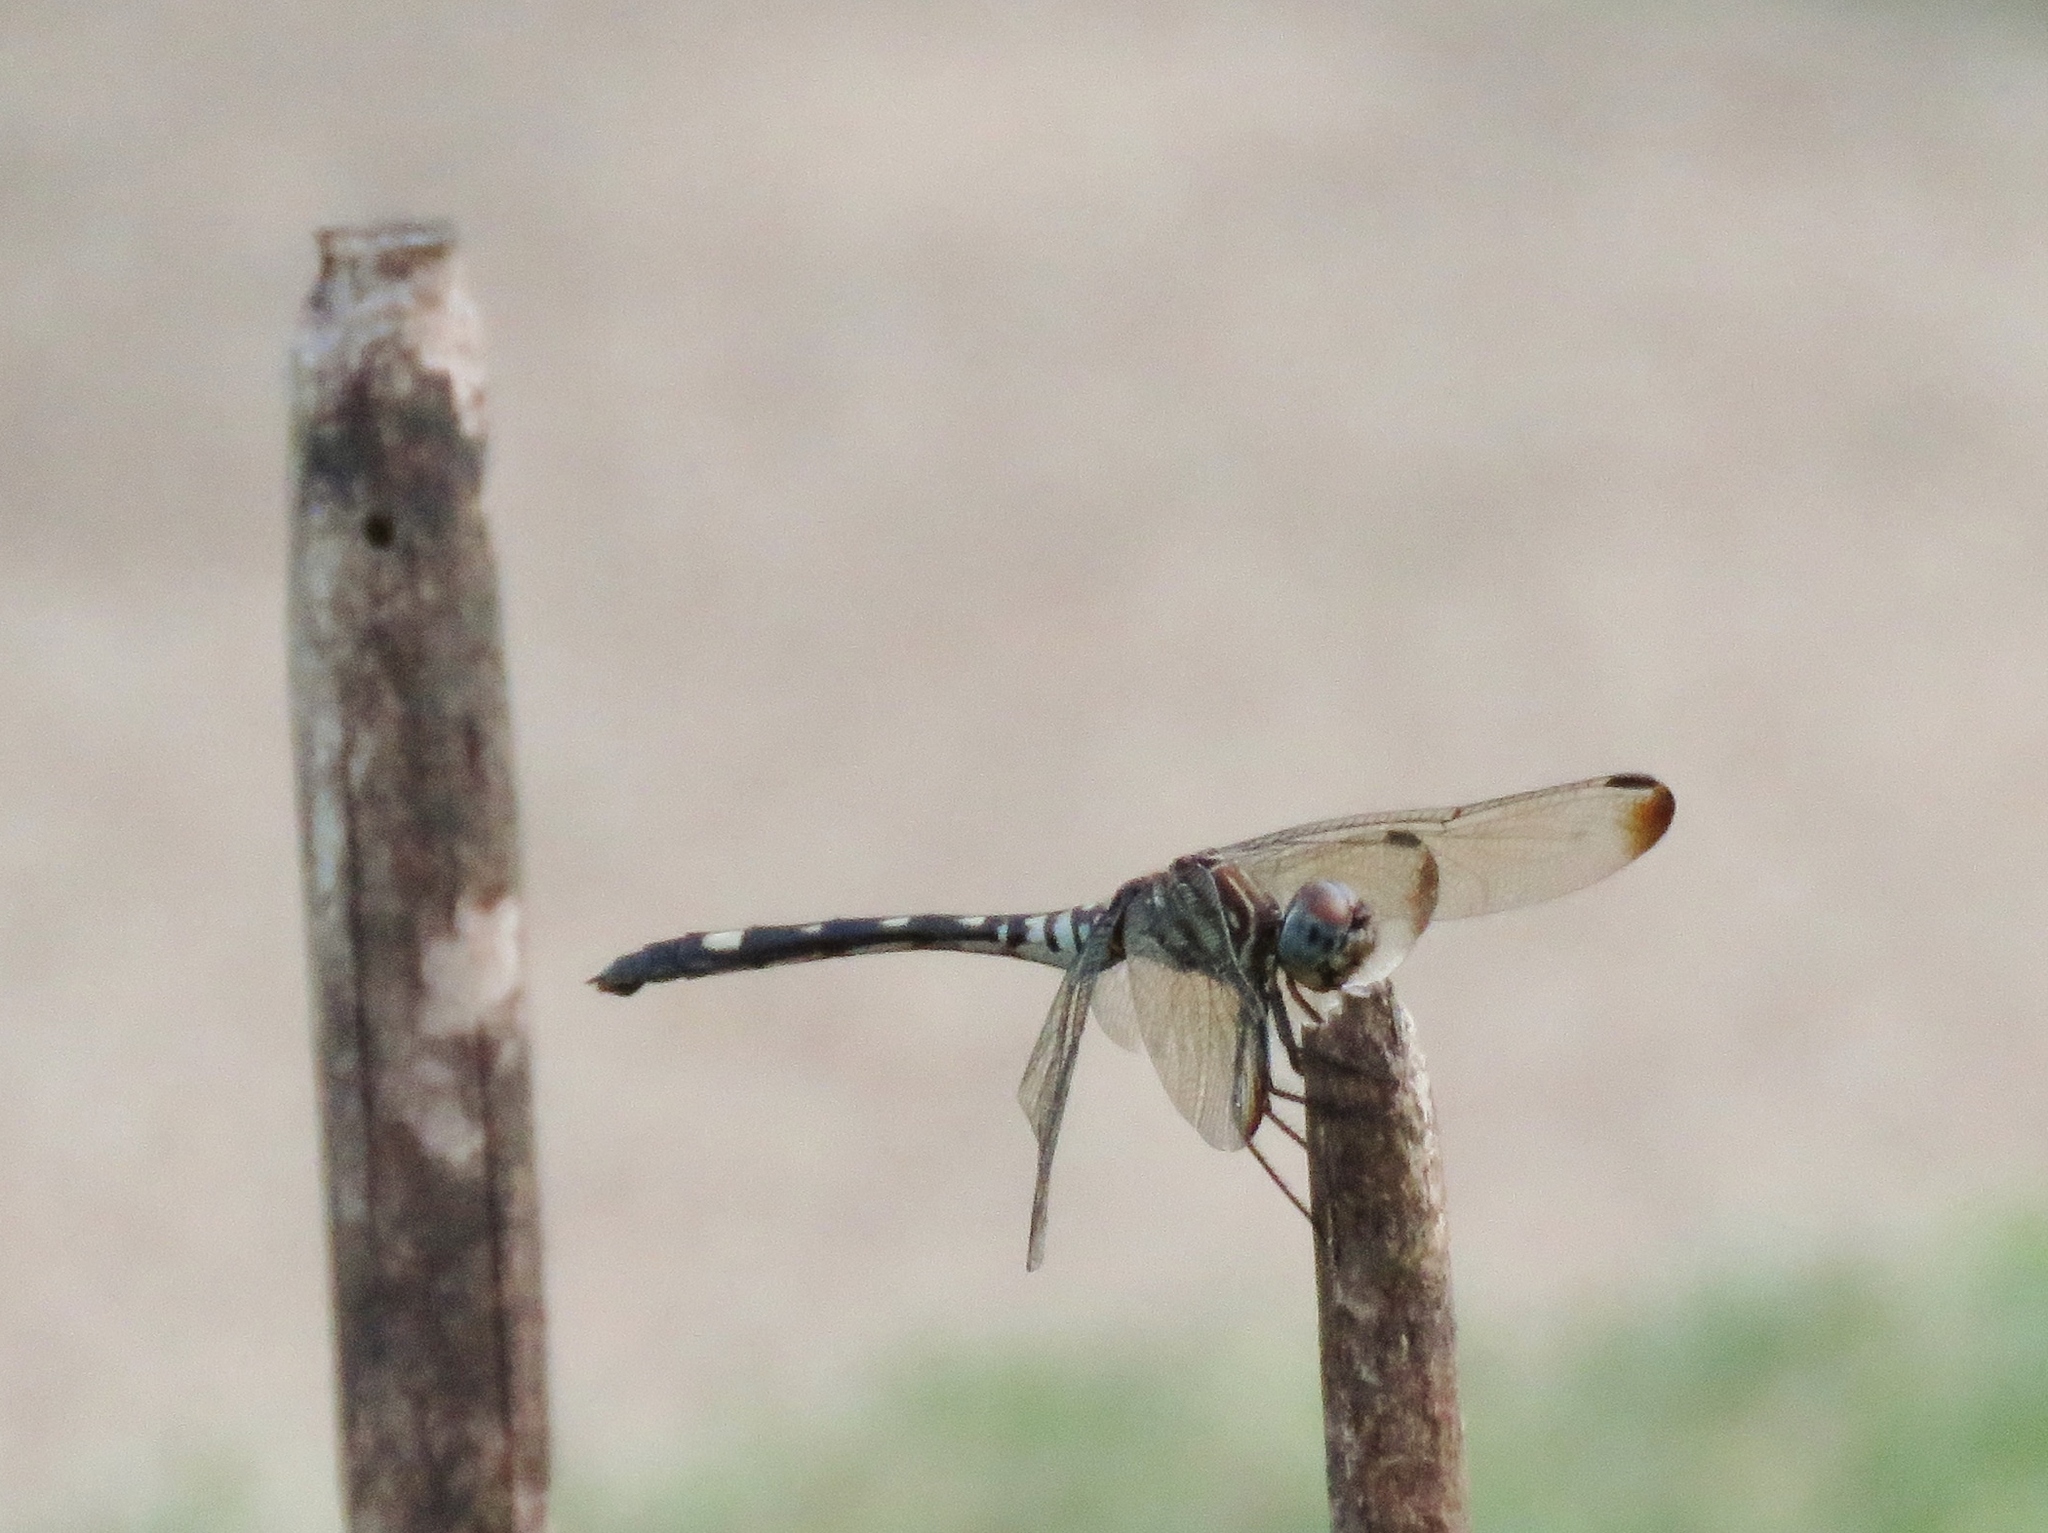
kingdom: Animalia
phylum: Arthropoda
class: Insecta
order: Odonata
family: Libellulidae
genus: Dythemis
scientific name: Dythemis velox
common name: Swift setwing
